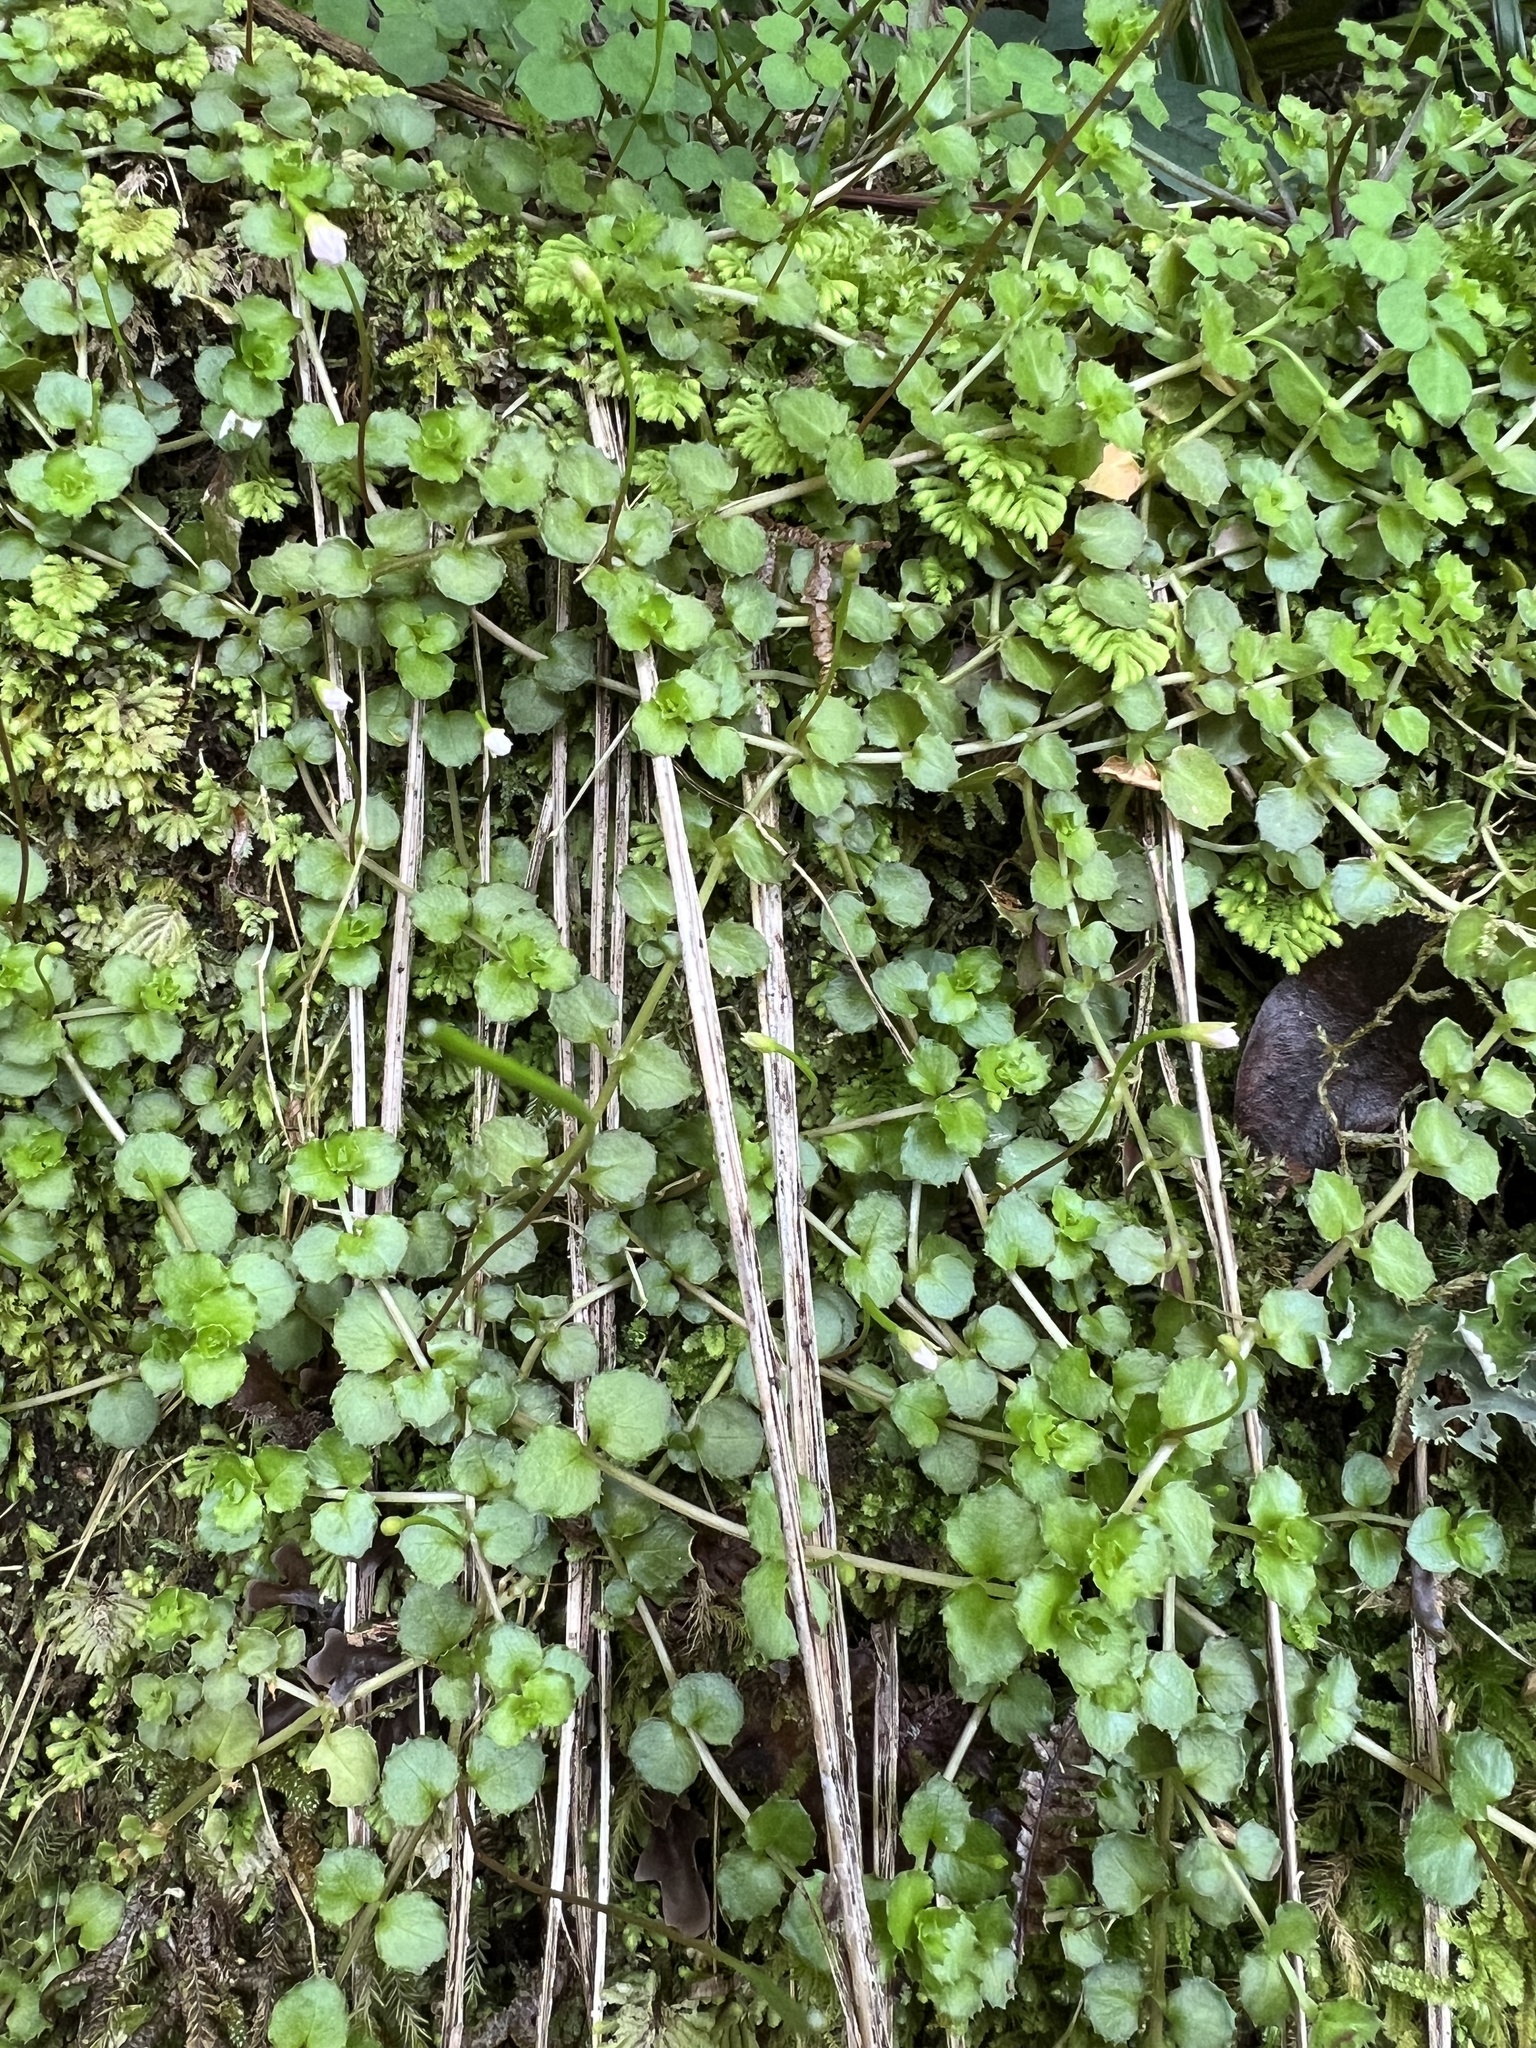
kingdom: Plantae
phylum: Tracheophyta
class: Magnoliopsida
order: Myrtales
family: Onagraceae
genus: Epilobium
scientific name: Epilobium pedunculare
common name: Rockery willowherb
